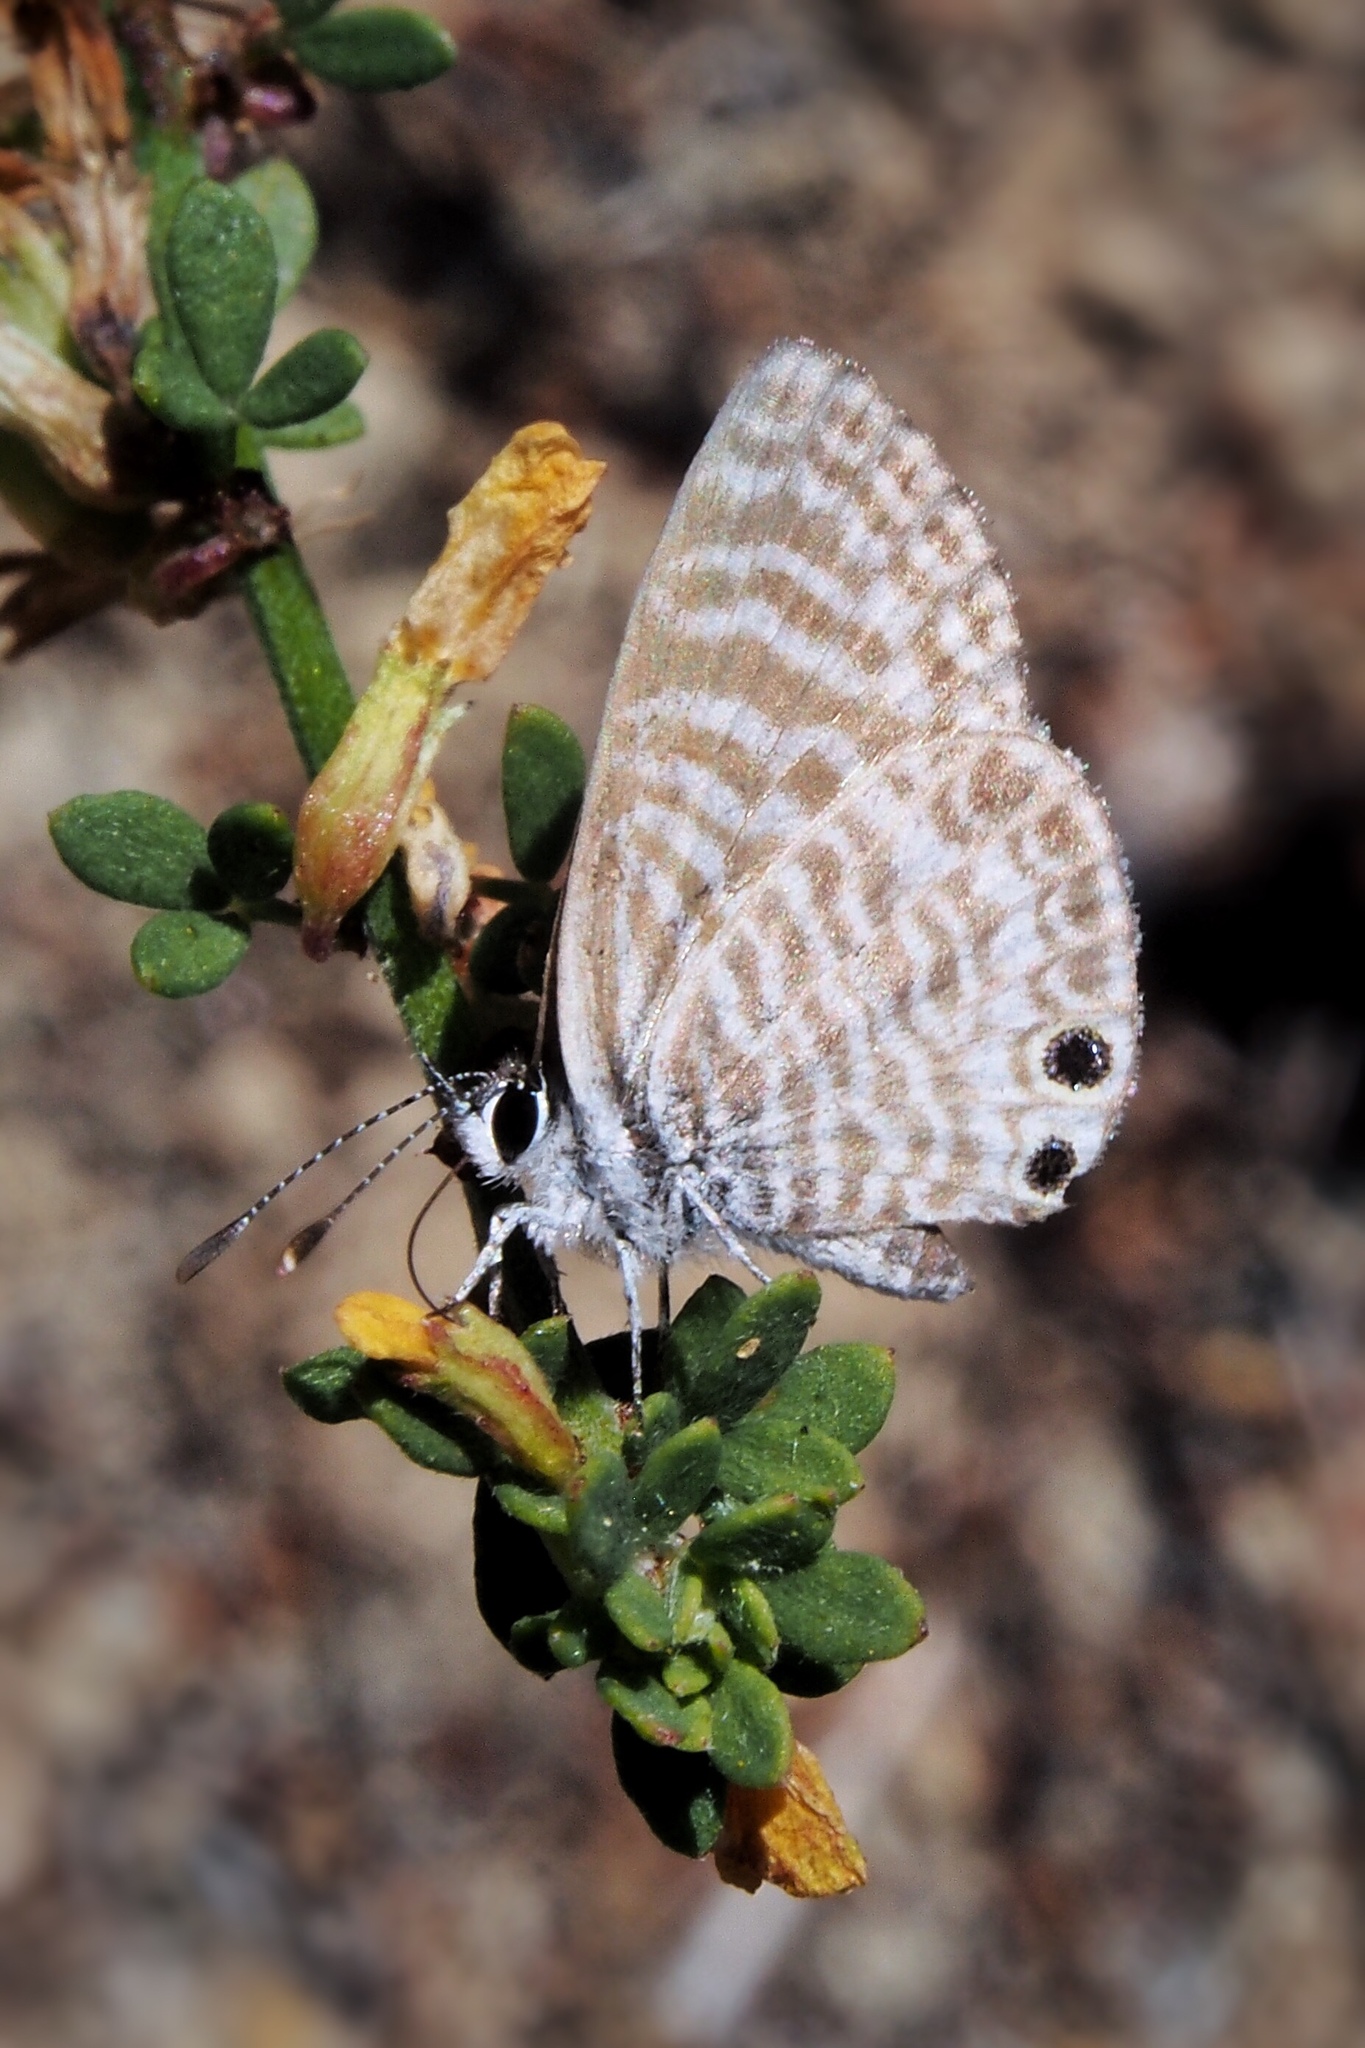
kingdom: Animalia
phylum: Arthropoda
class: Insecta
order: Lepidoptera
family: Lycaenidae
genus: Leptotes
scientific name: Leptotes marina
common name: Marine blue
